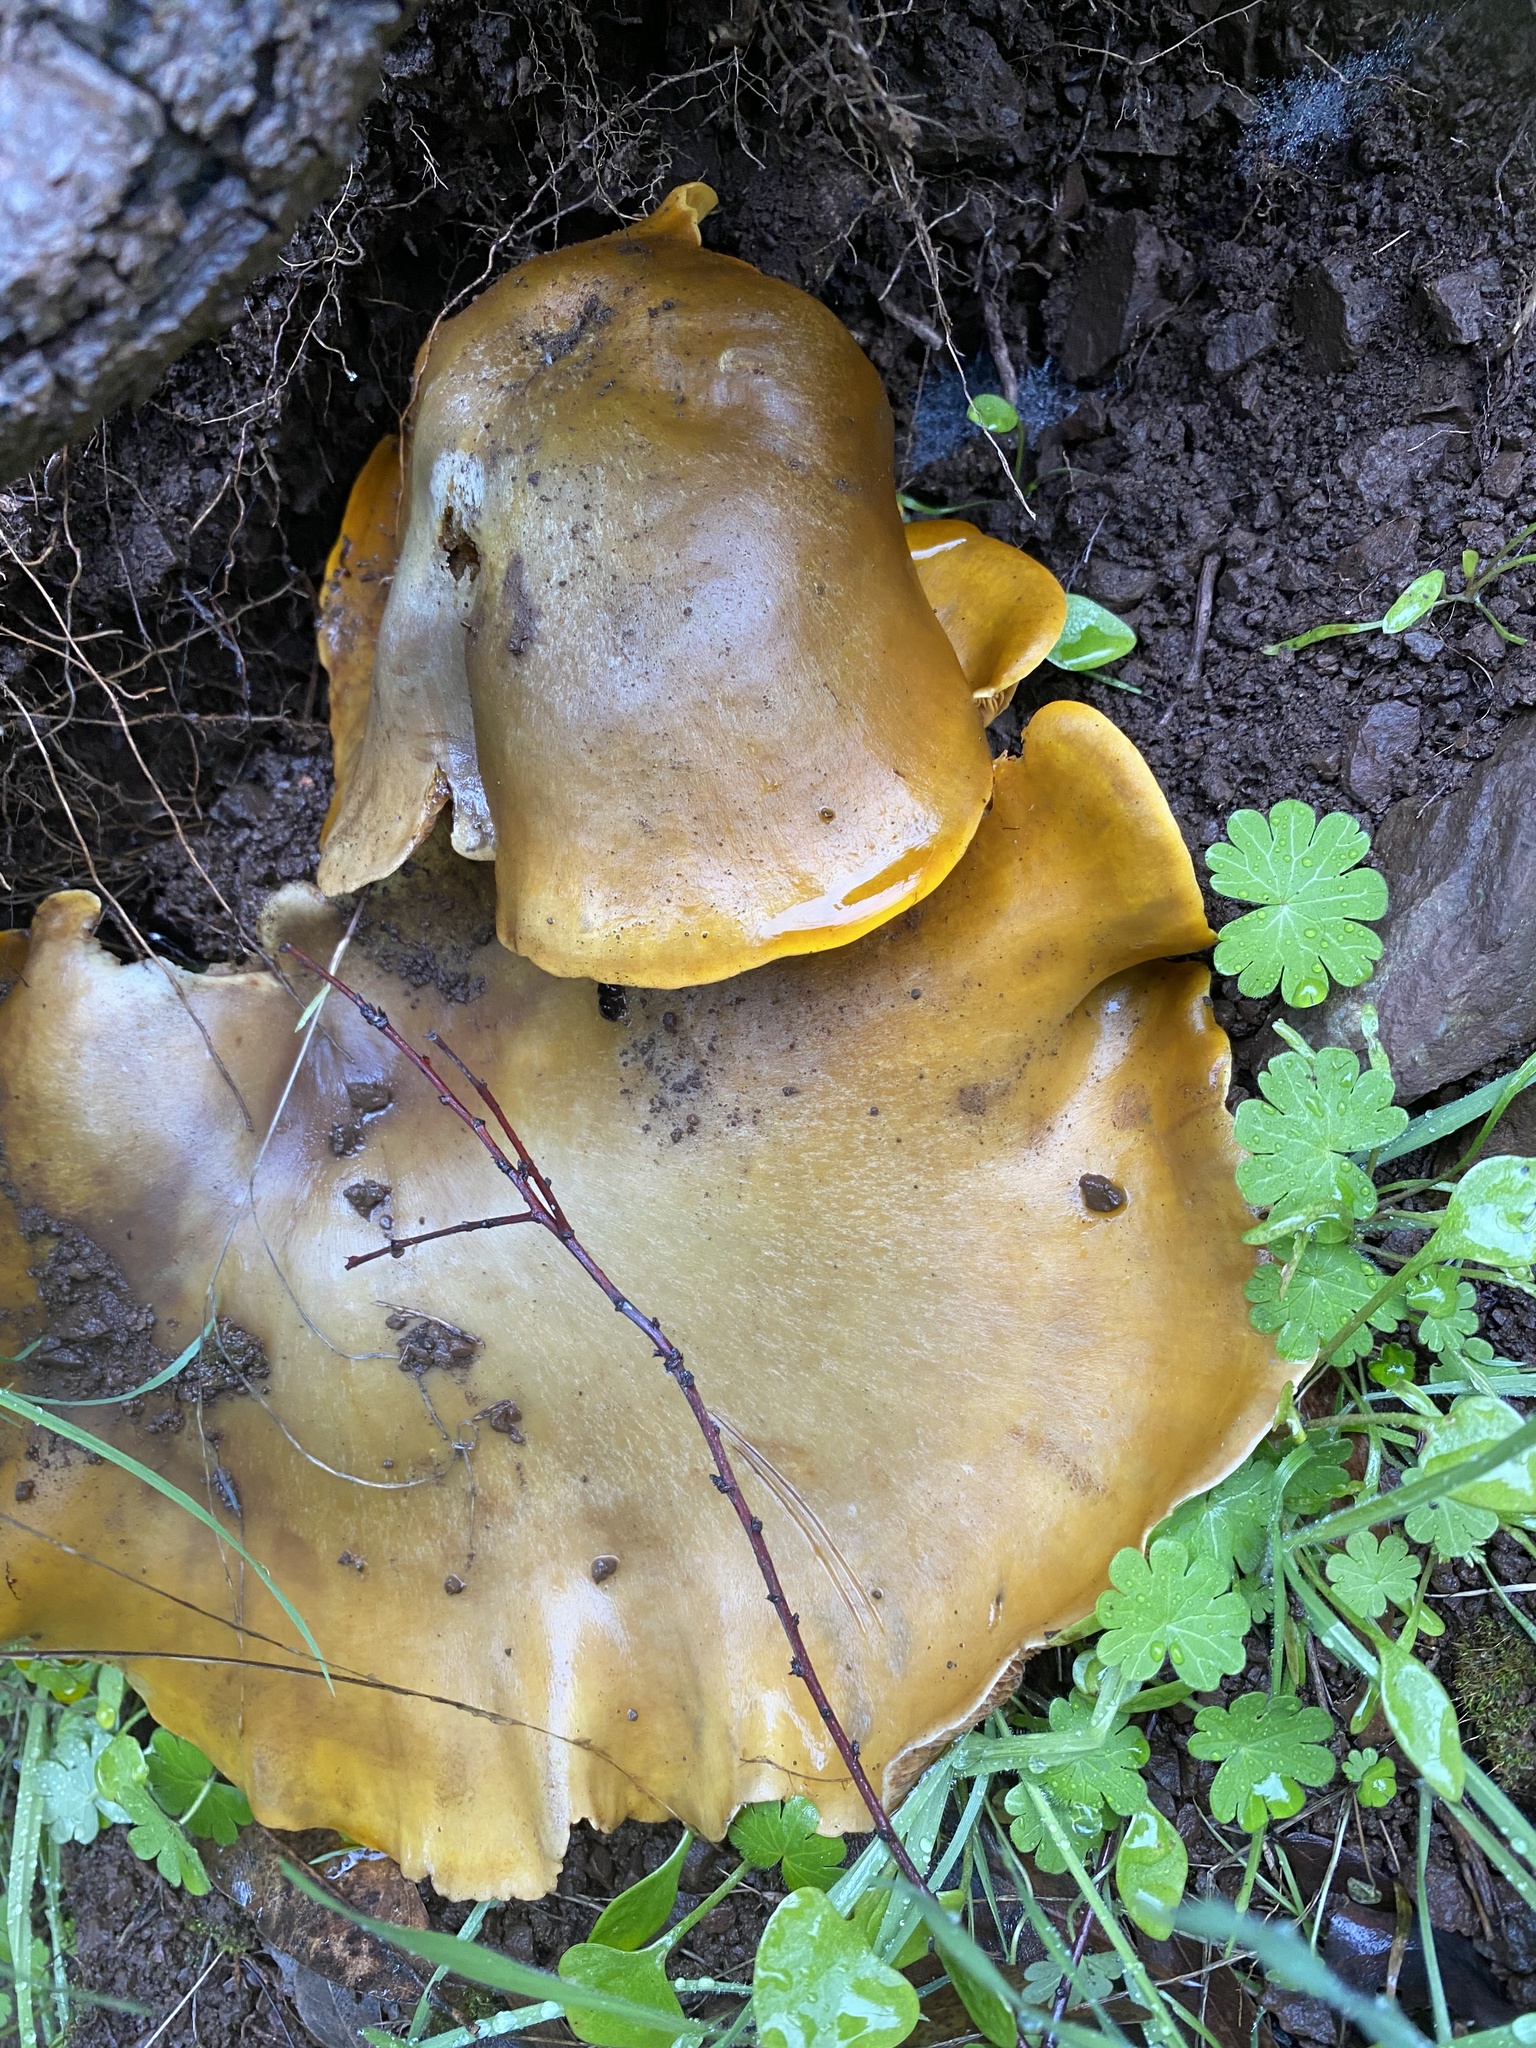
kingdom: Fungi
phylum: Basidiomycota
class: Agaricomycetes
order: Agaricales
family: Omphalotaceae
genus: Omphalotus
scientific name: Omphalotus olivascens
